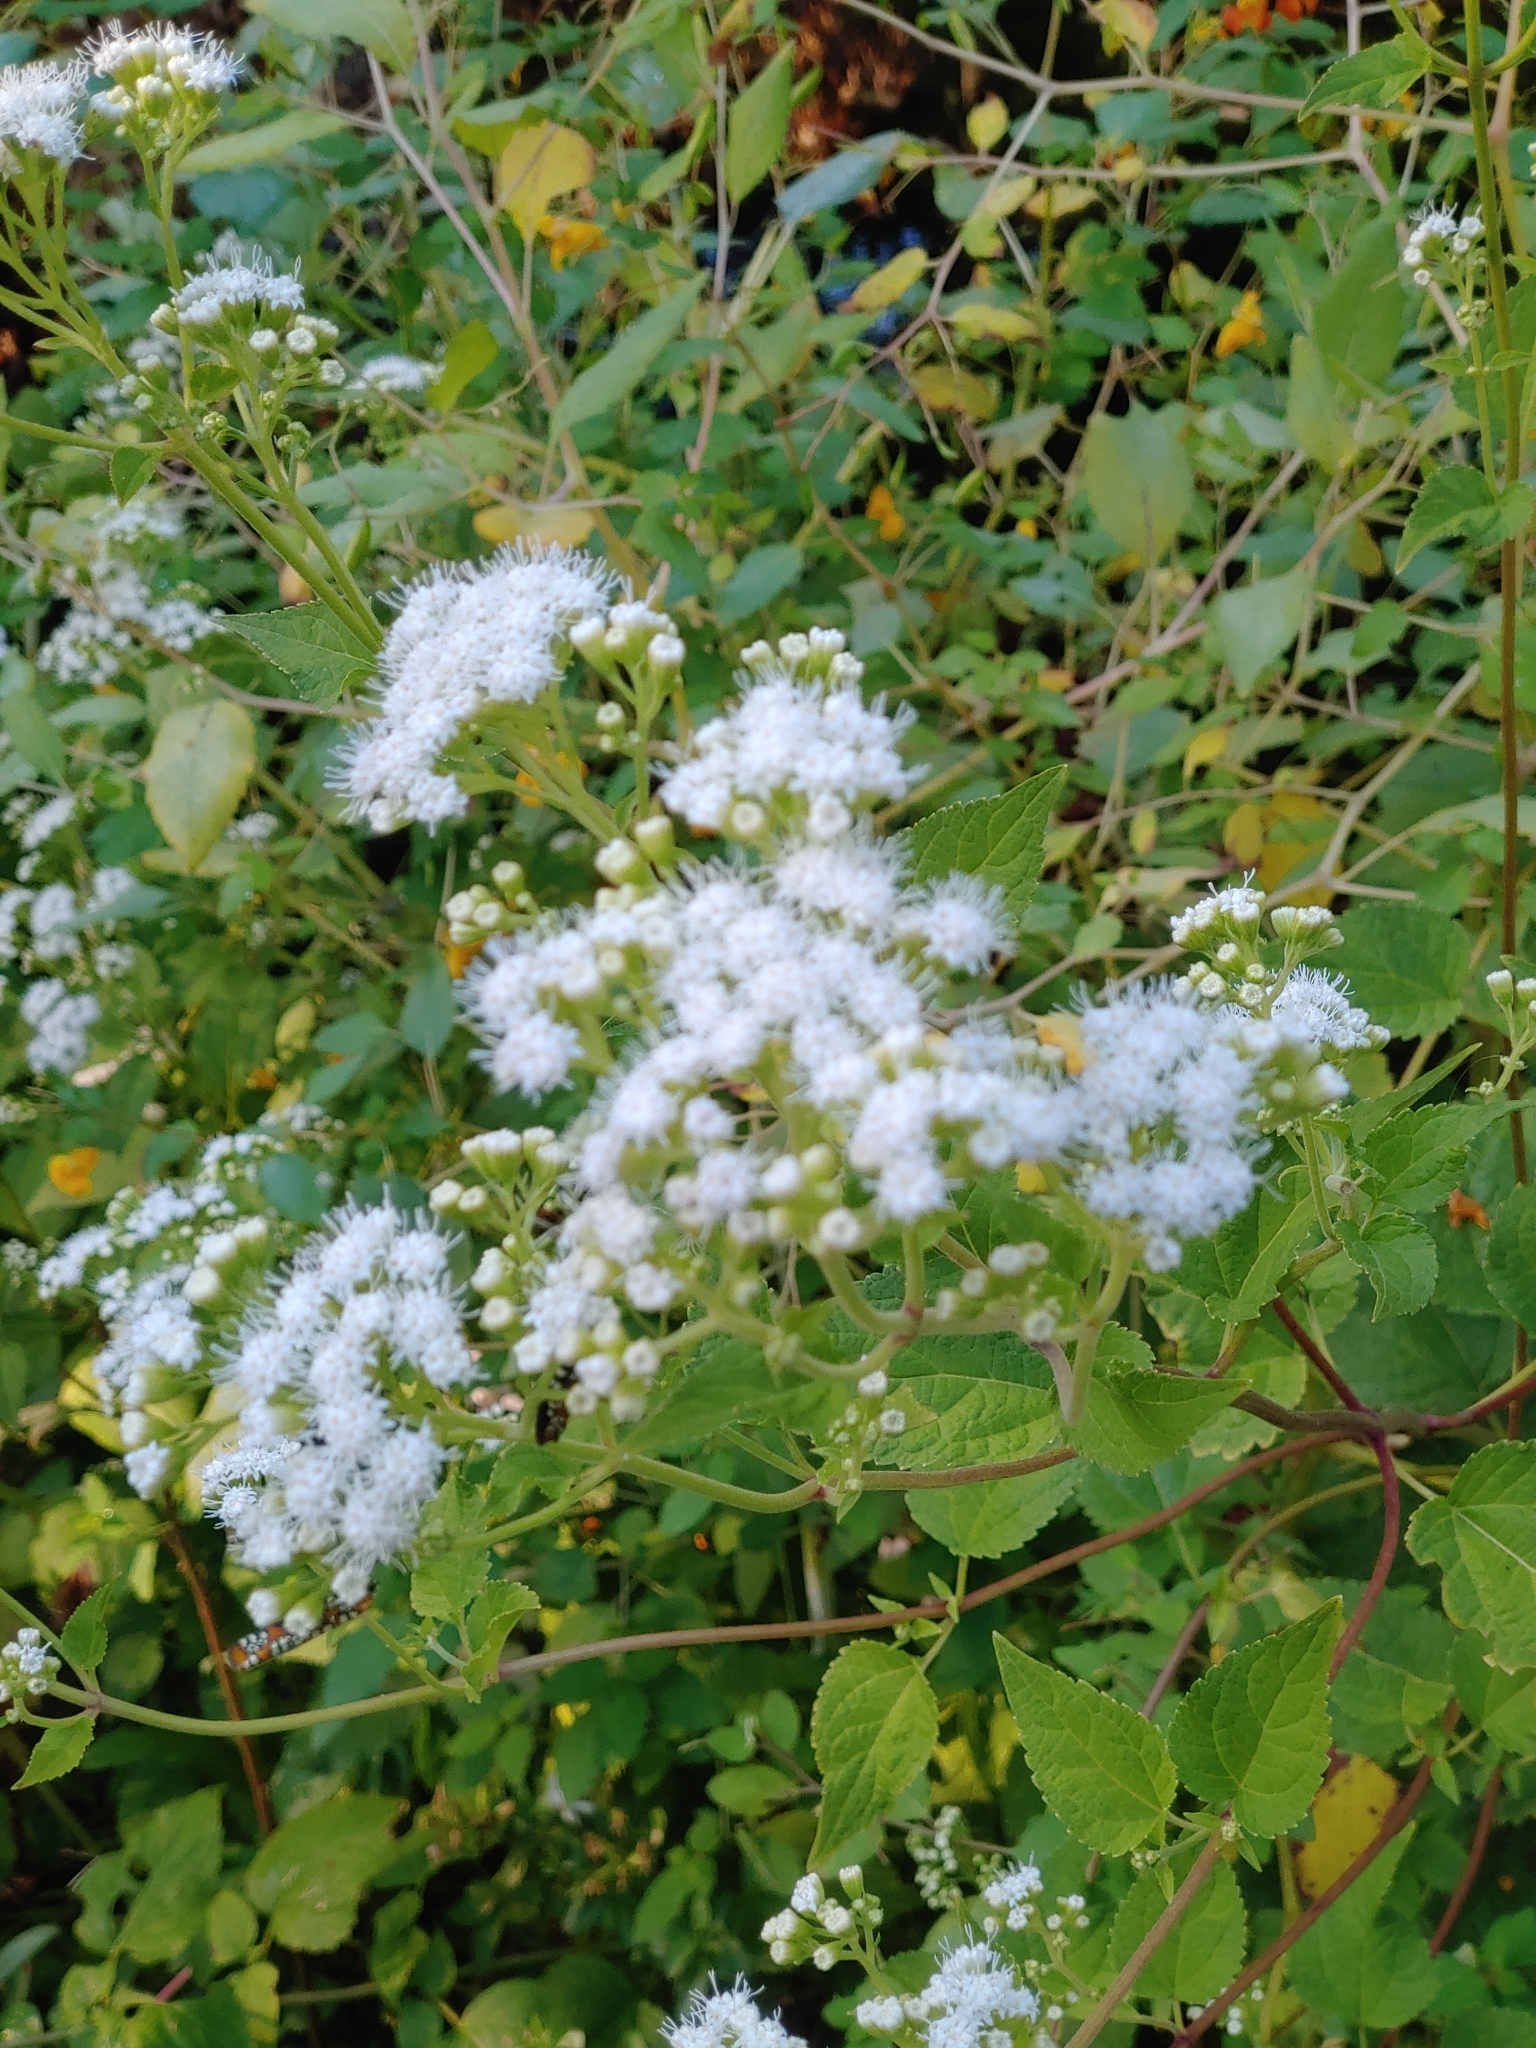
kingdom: Plantae
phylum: Tracheophyta
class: Magnoliopsida
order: Asterales
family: Asteraceae
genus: Ageratina
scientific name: Ageratina altissima
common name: White snakeroot
